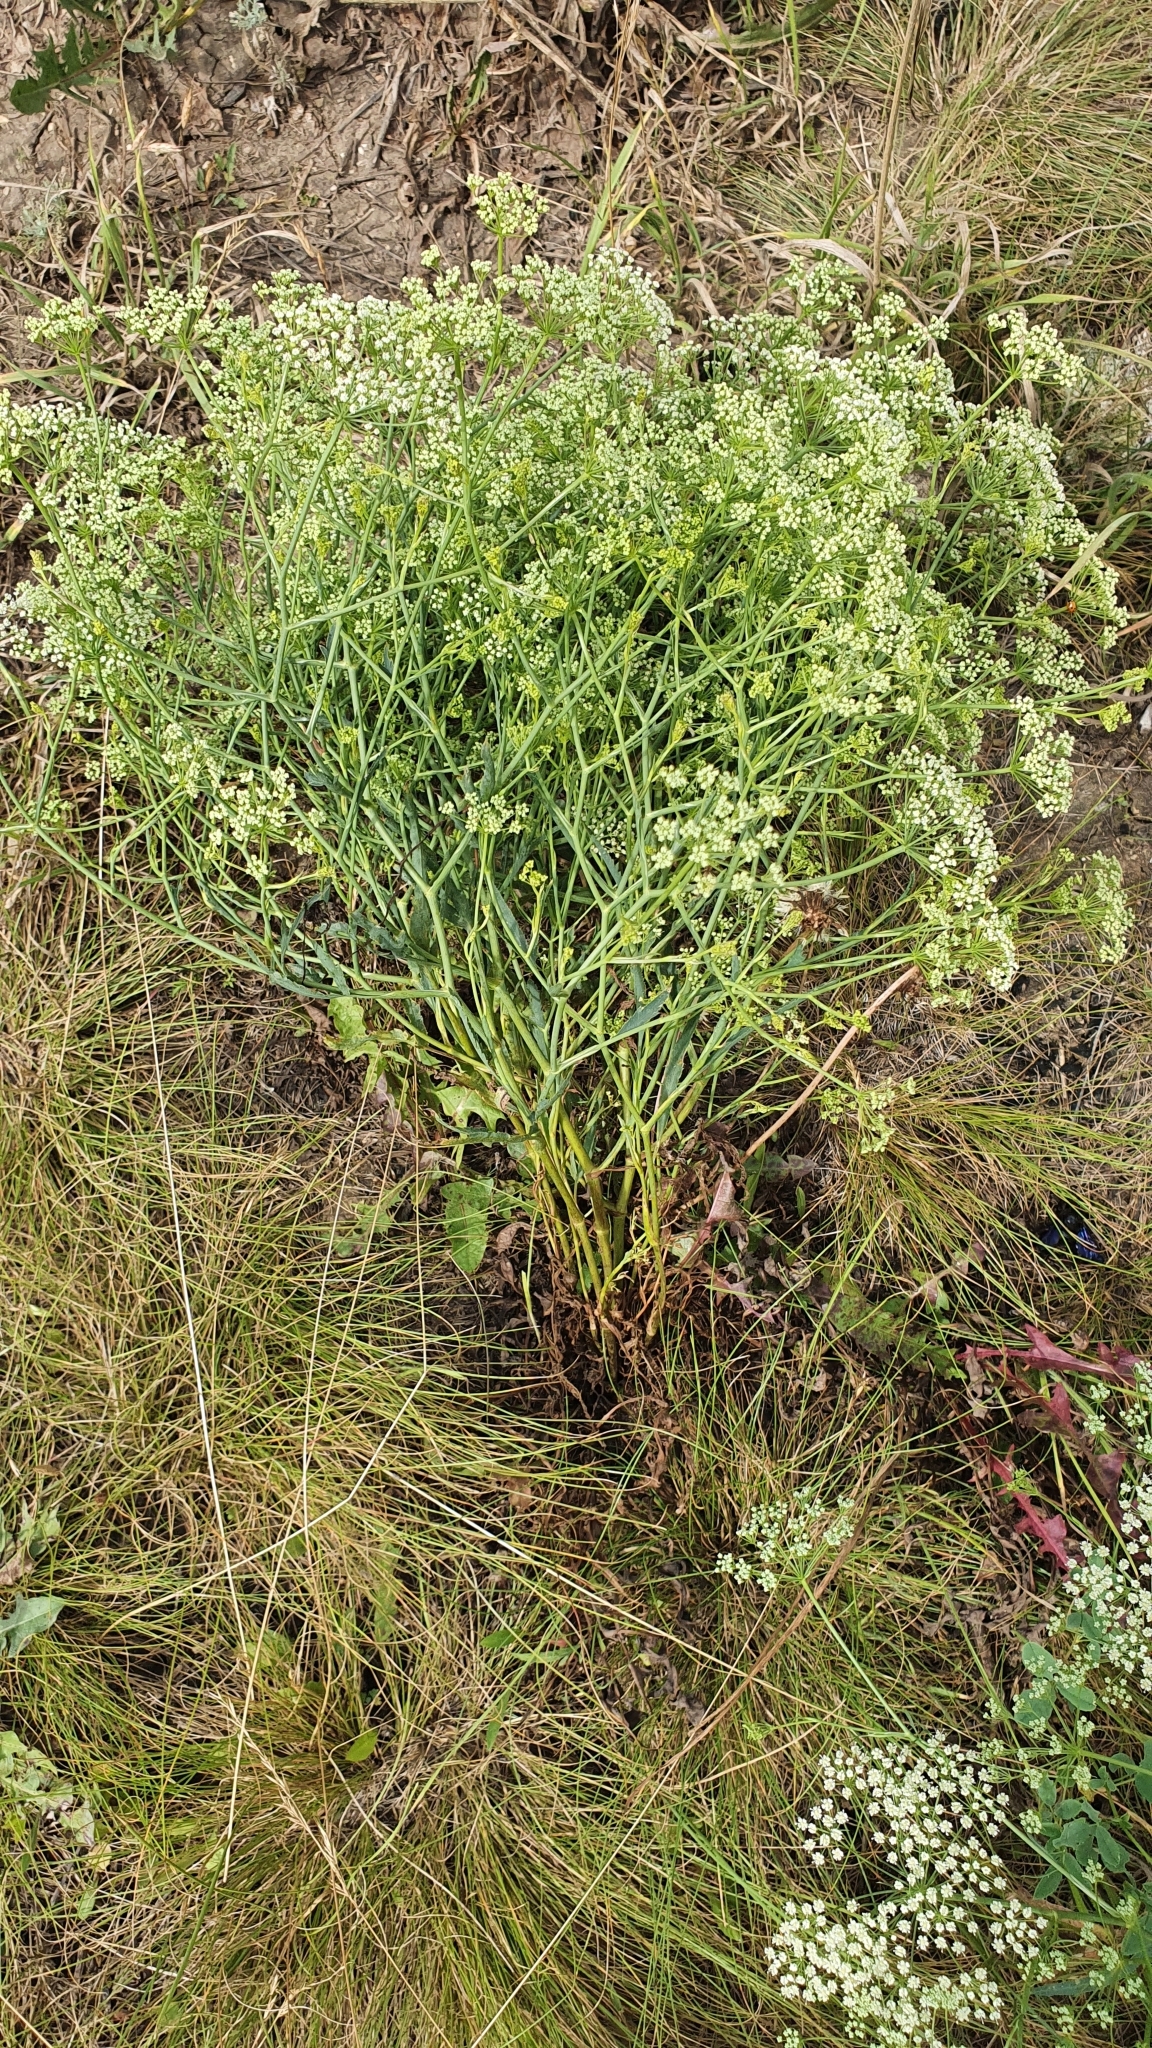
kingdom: Plantae
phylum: Tracheophyta
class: Magnoliopsida
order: Apiales
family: Apiaceae
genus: Falcaria
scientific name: Falcaria vulgaris
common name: Longleaf
